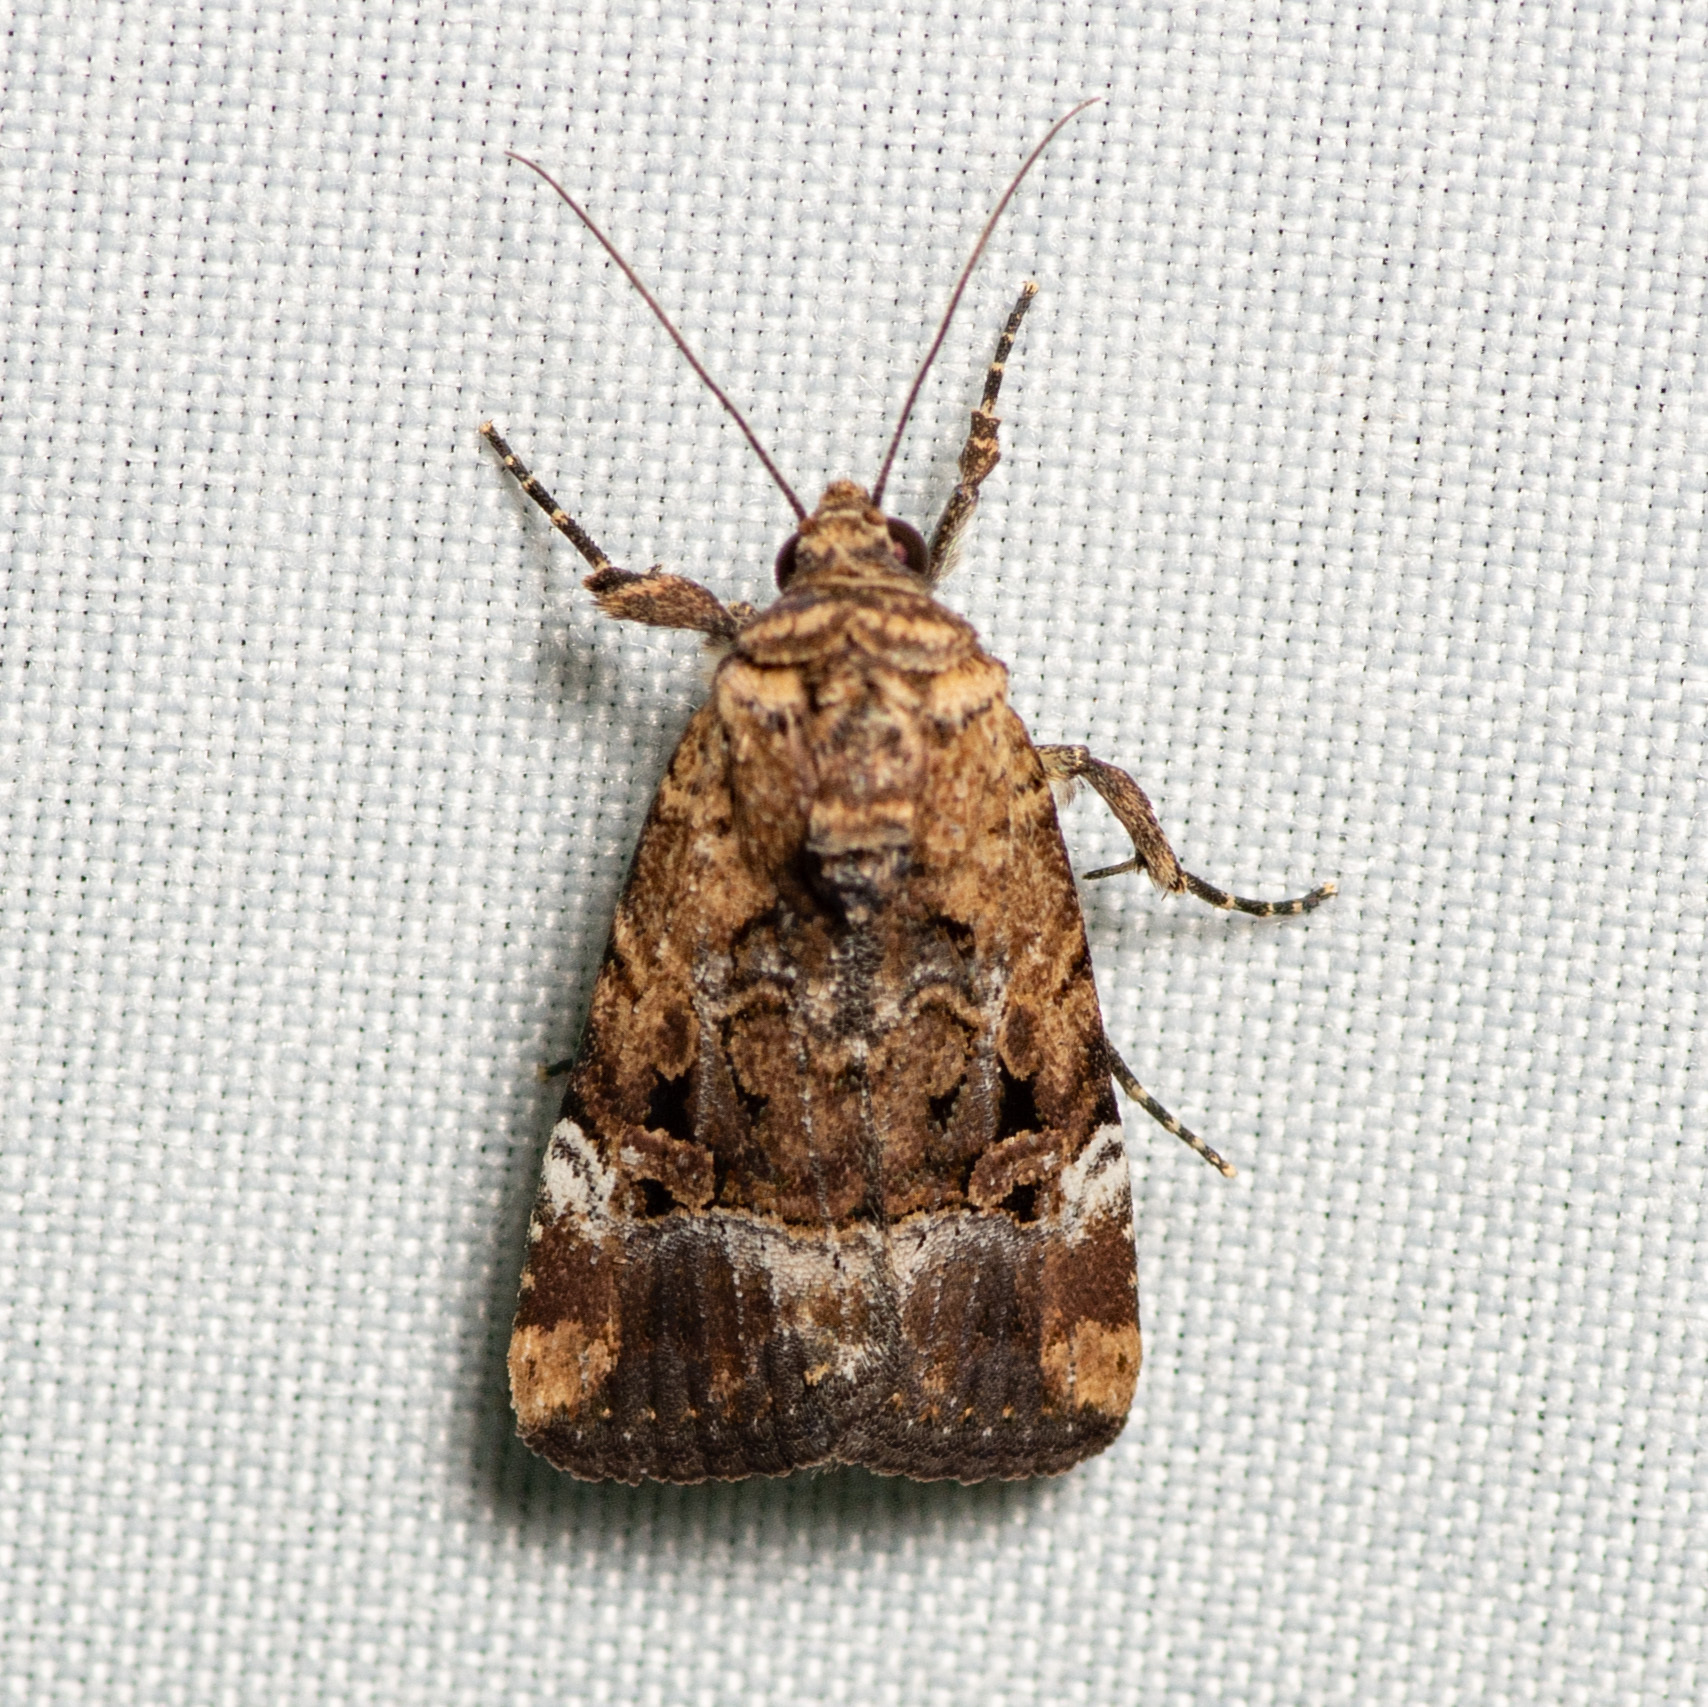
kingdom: Animalia
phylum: Arthropoda
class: Insecta
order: Lepidoptera
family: Noctuidae
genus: Elaphria
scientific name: Elaphria chalcedonia
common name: Chalcedony midget
